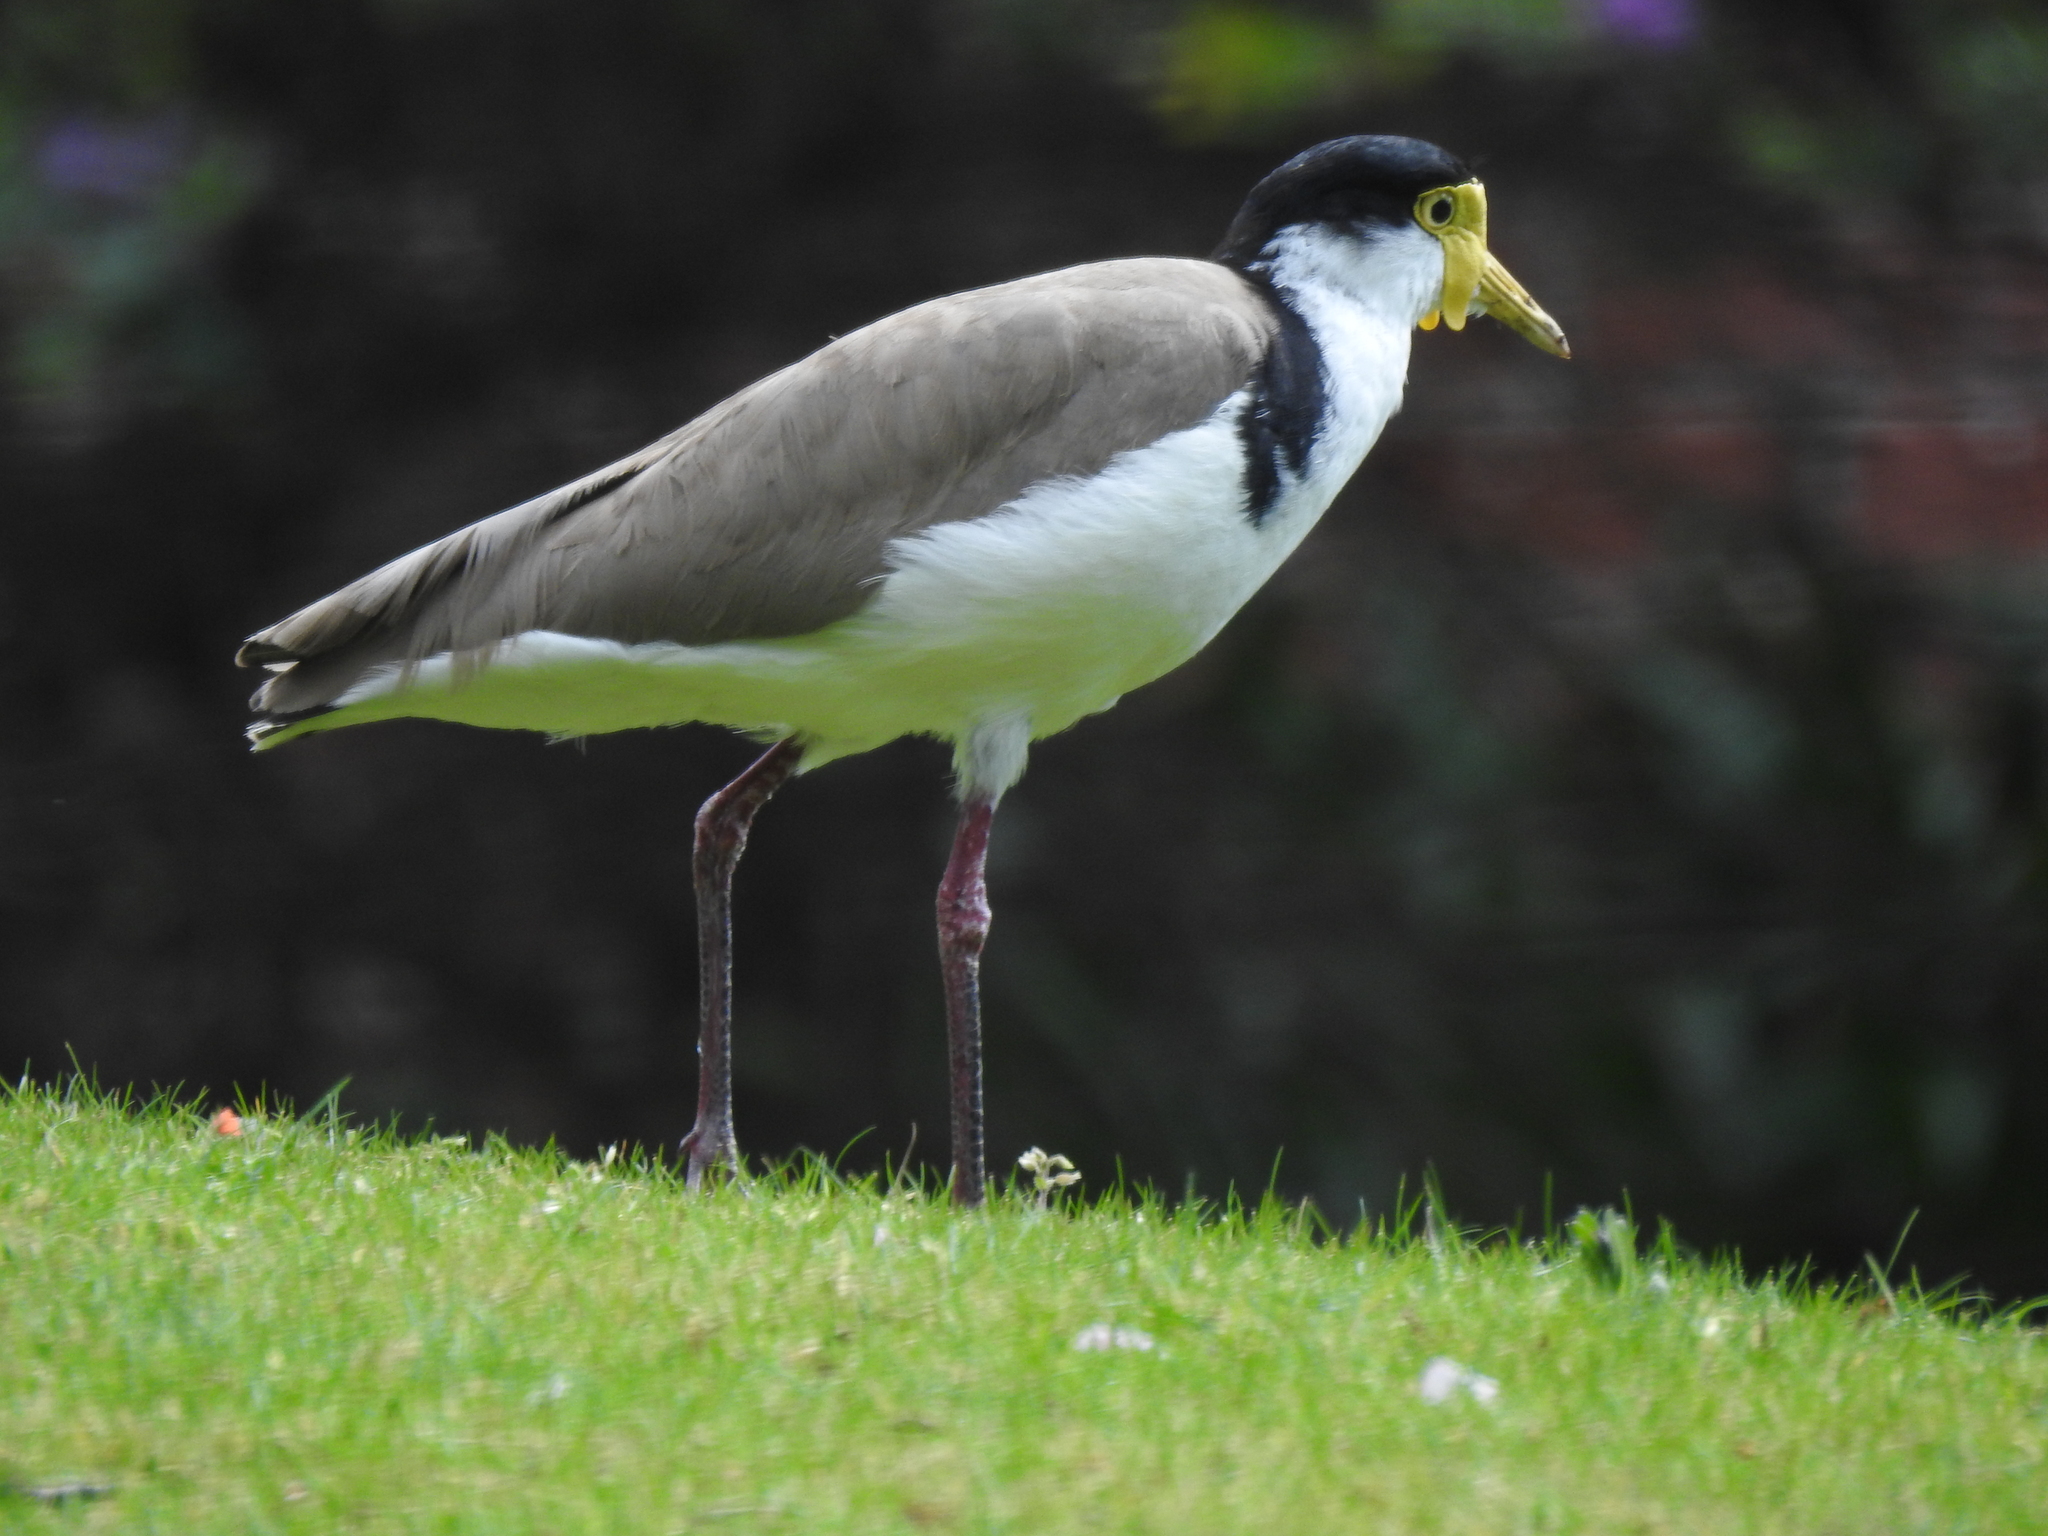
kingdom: Animalia
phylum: Chordata
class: Aves
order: Charadriiformes
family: Charadriidae
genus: Vanellus
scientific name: Vanellus miles
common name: Masked lapwing
